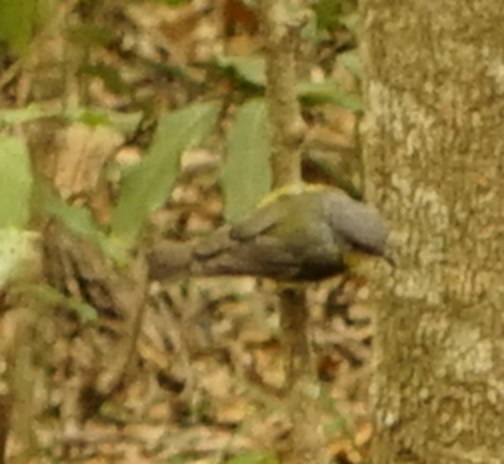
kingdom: Animalia
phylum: Chordata
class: Aves
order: Passeriformes
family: Petroicidae
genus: Eopsaltria
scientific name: Eopsaltria australis
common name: Eastern yellow robin
